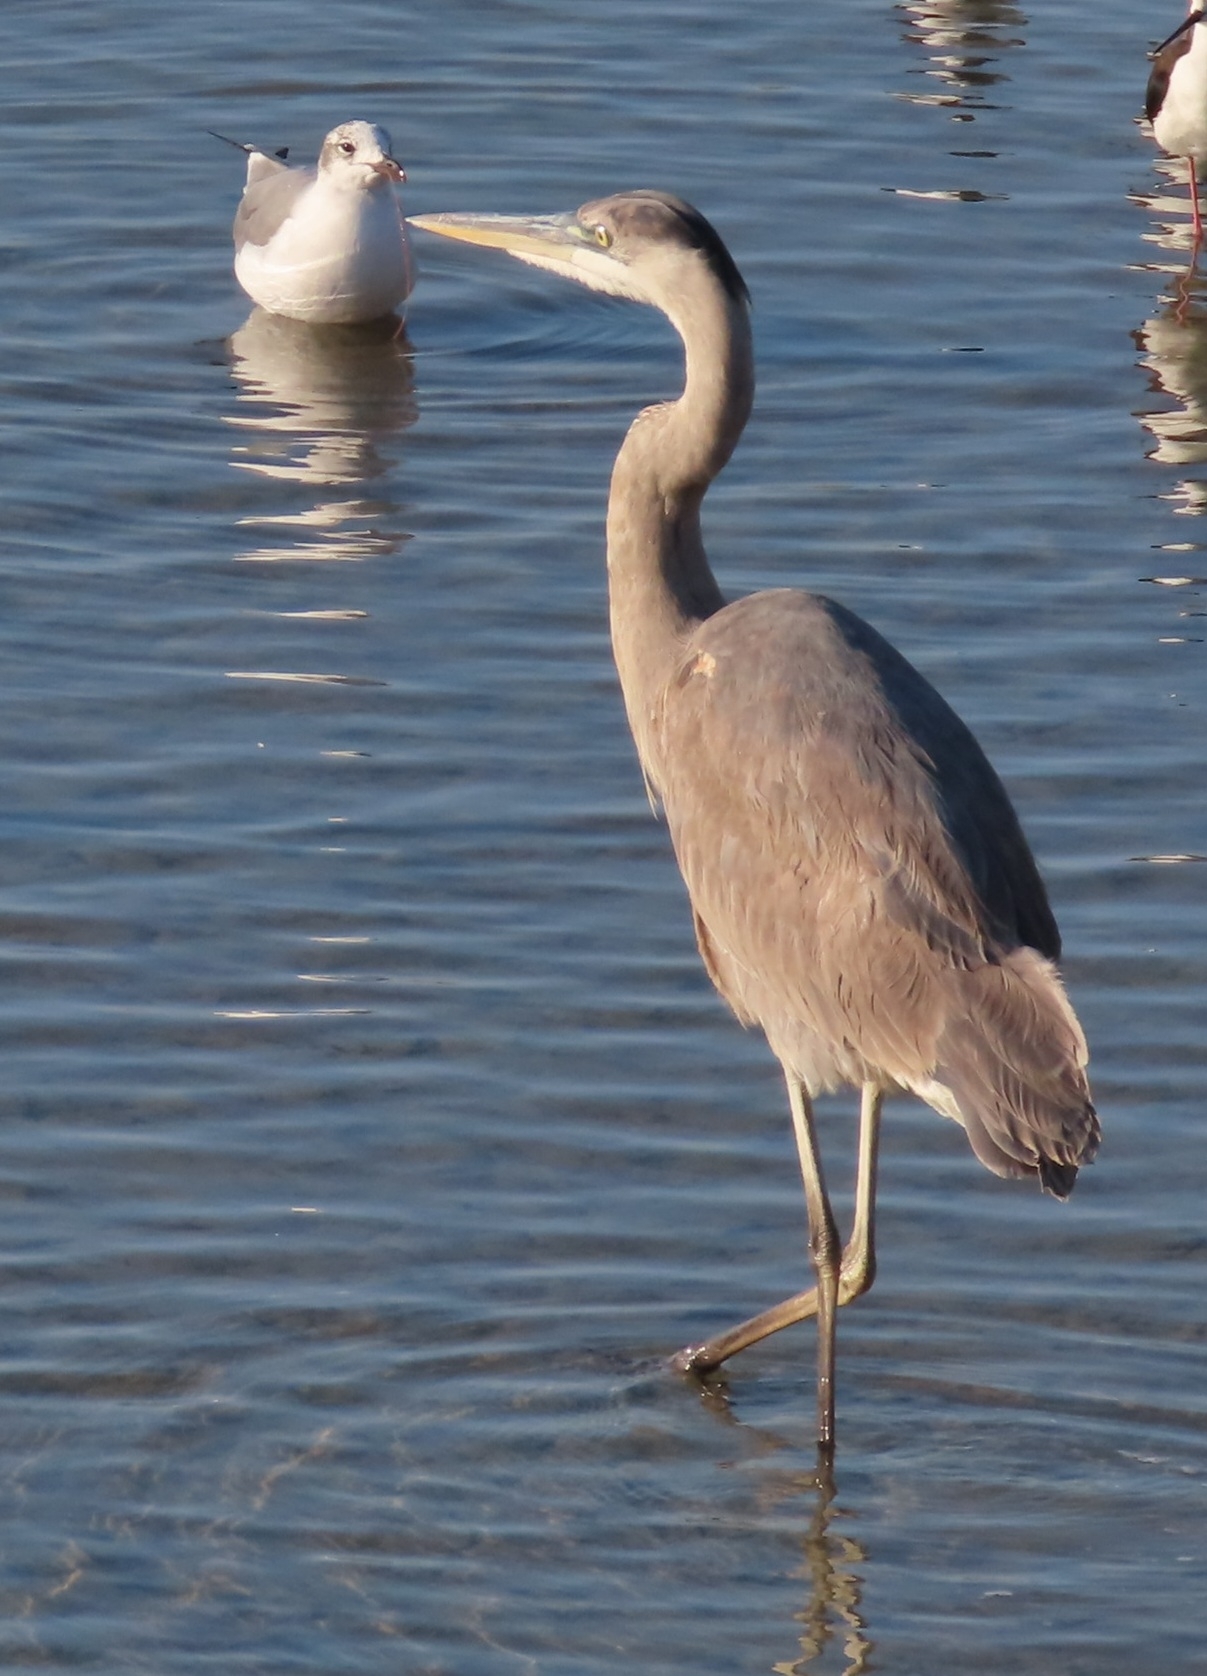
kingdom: Animalia
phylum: Chordata
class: Aves
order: Pelecaniformes
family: Ardeidae
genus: Ardea
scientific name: Ardea herodias
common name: Great blue heron
